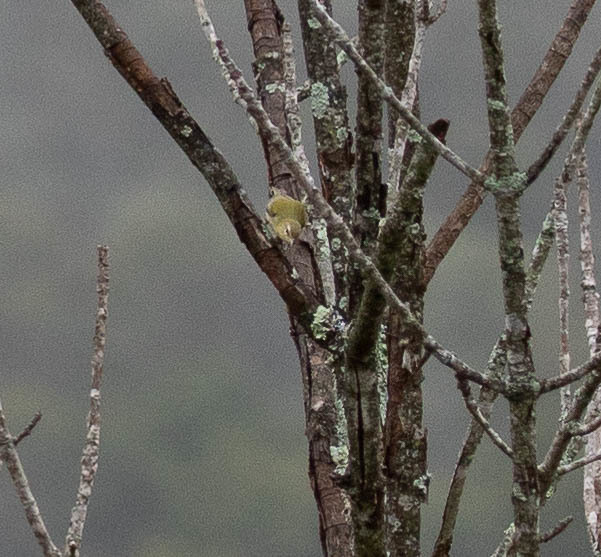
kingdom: Animalia
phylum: Chordata
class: Aves
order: Passeriformes
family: Parulidae
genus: Leiothlypis
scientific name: Leiothlypis peregrina
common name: Tennessee warbler
